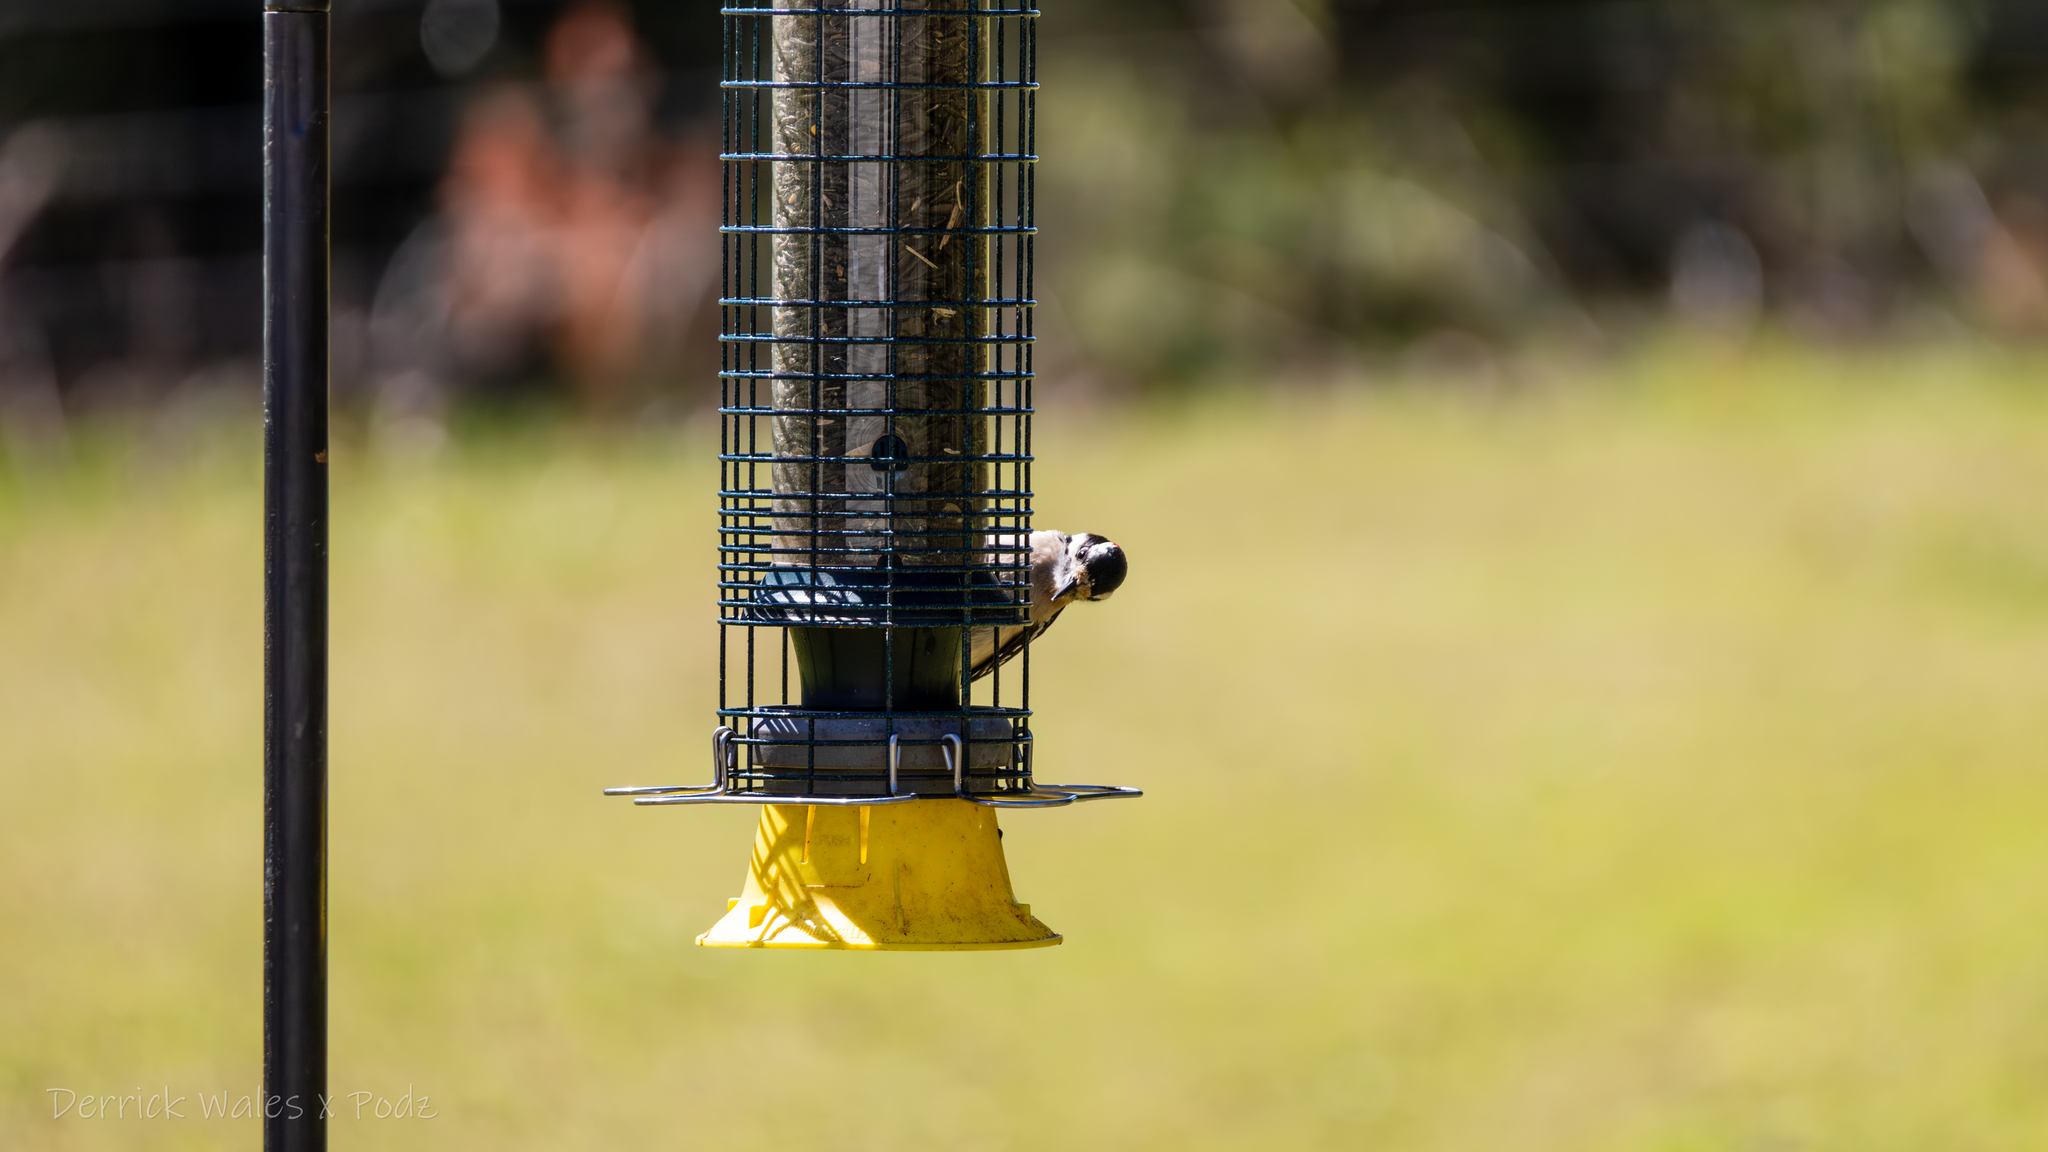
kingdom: Animalia
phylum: Chordata
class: Aves
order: Piciformes
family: Picidae
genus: Dryobates
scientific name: Dryobates pubescens
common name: Downy woodpecker
